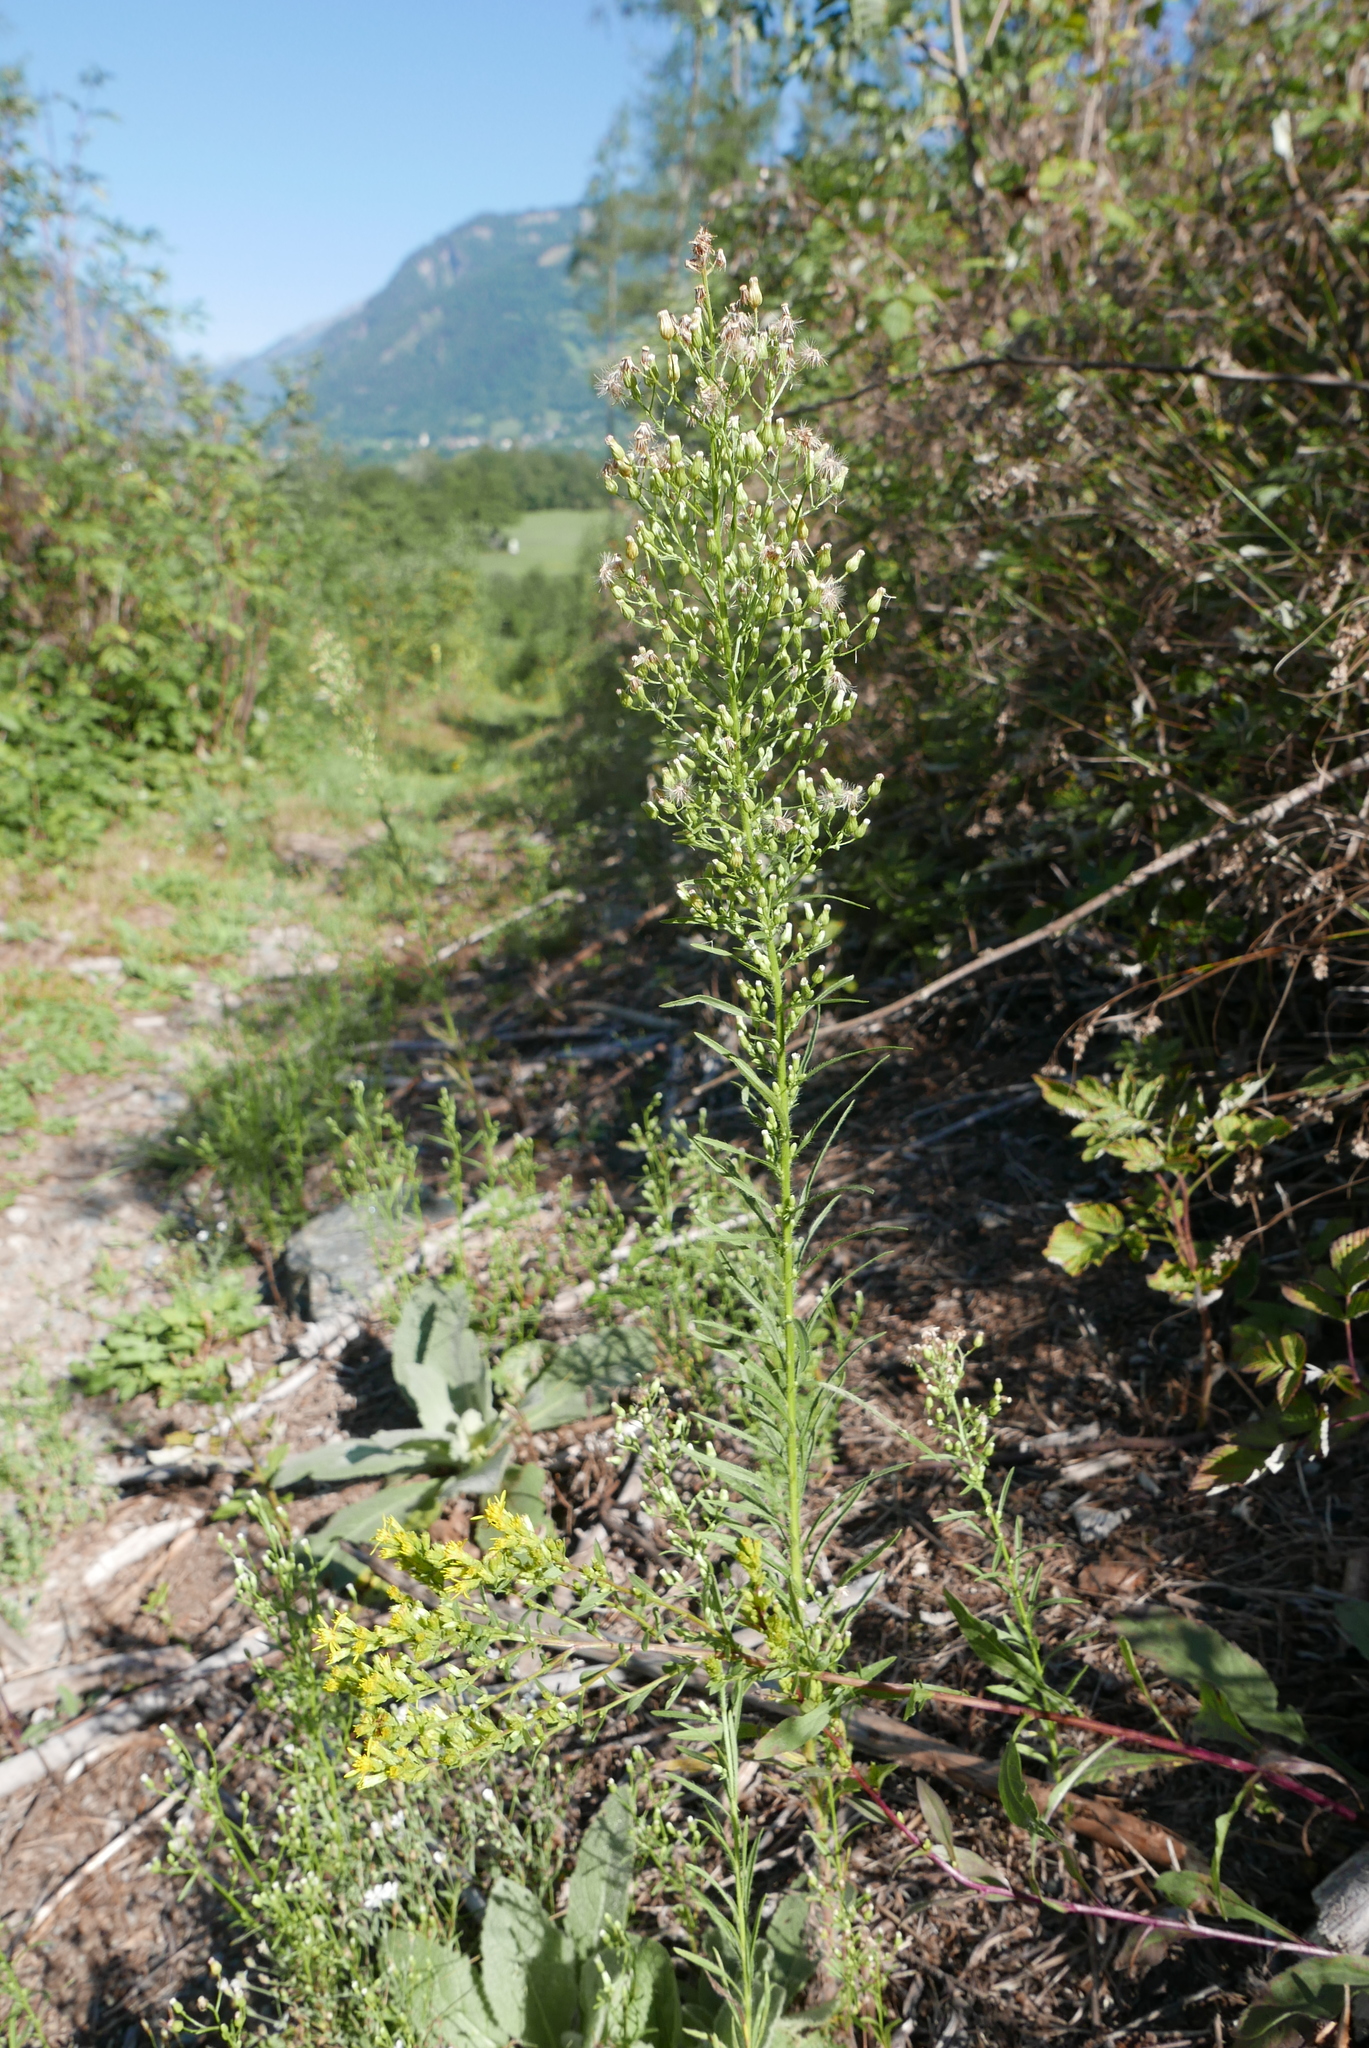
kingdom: Plantae
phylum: Tracheophyta
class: Magnoliopsida
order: Asterales
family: Asteraceae
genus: Erigeron
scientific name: Erigeron canadensis
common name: Canadian fleabane
